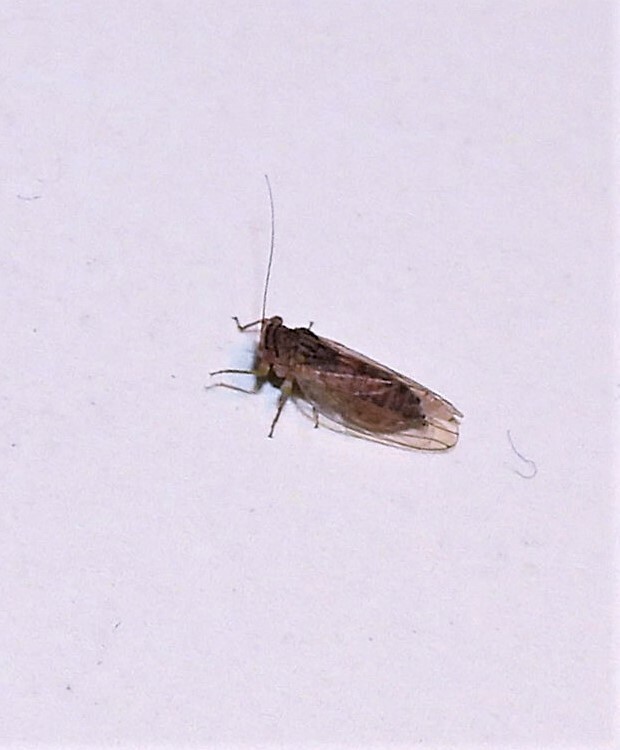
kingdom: Animalia
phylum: Arthropoda
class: Insecta
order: Hemiptera
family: Psyllidae
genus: Platycorypha
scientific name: Platycorypha nigrivirga
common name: Tipu psyllid
